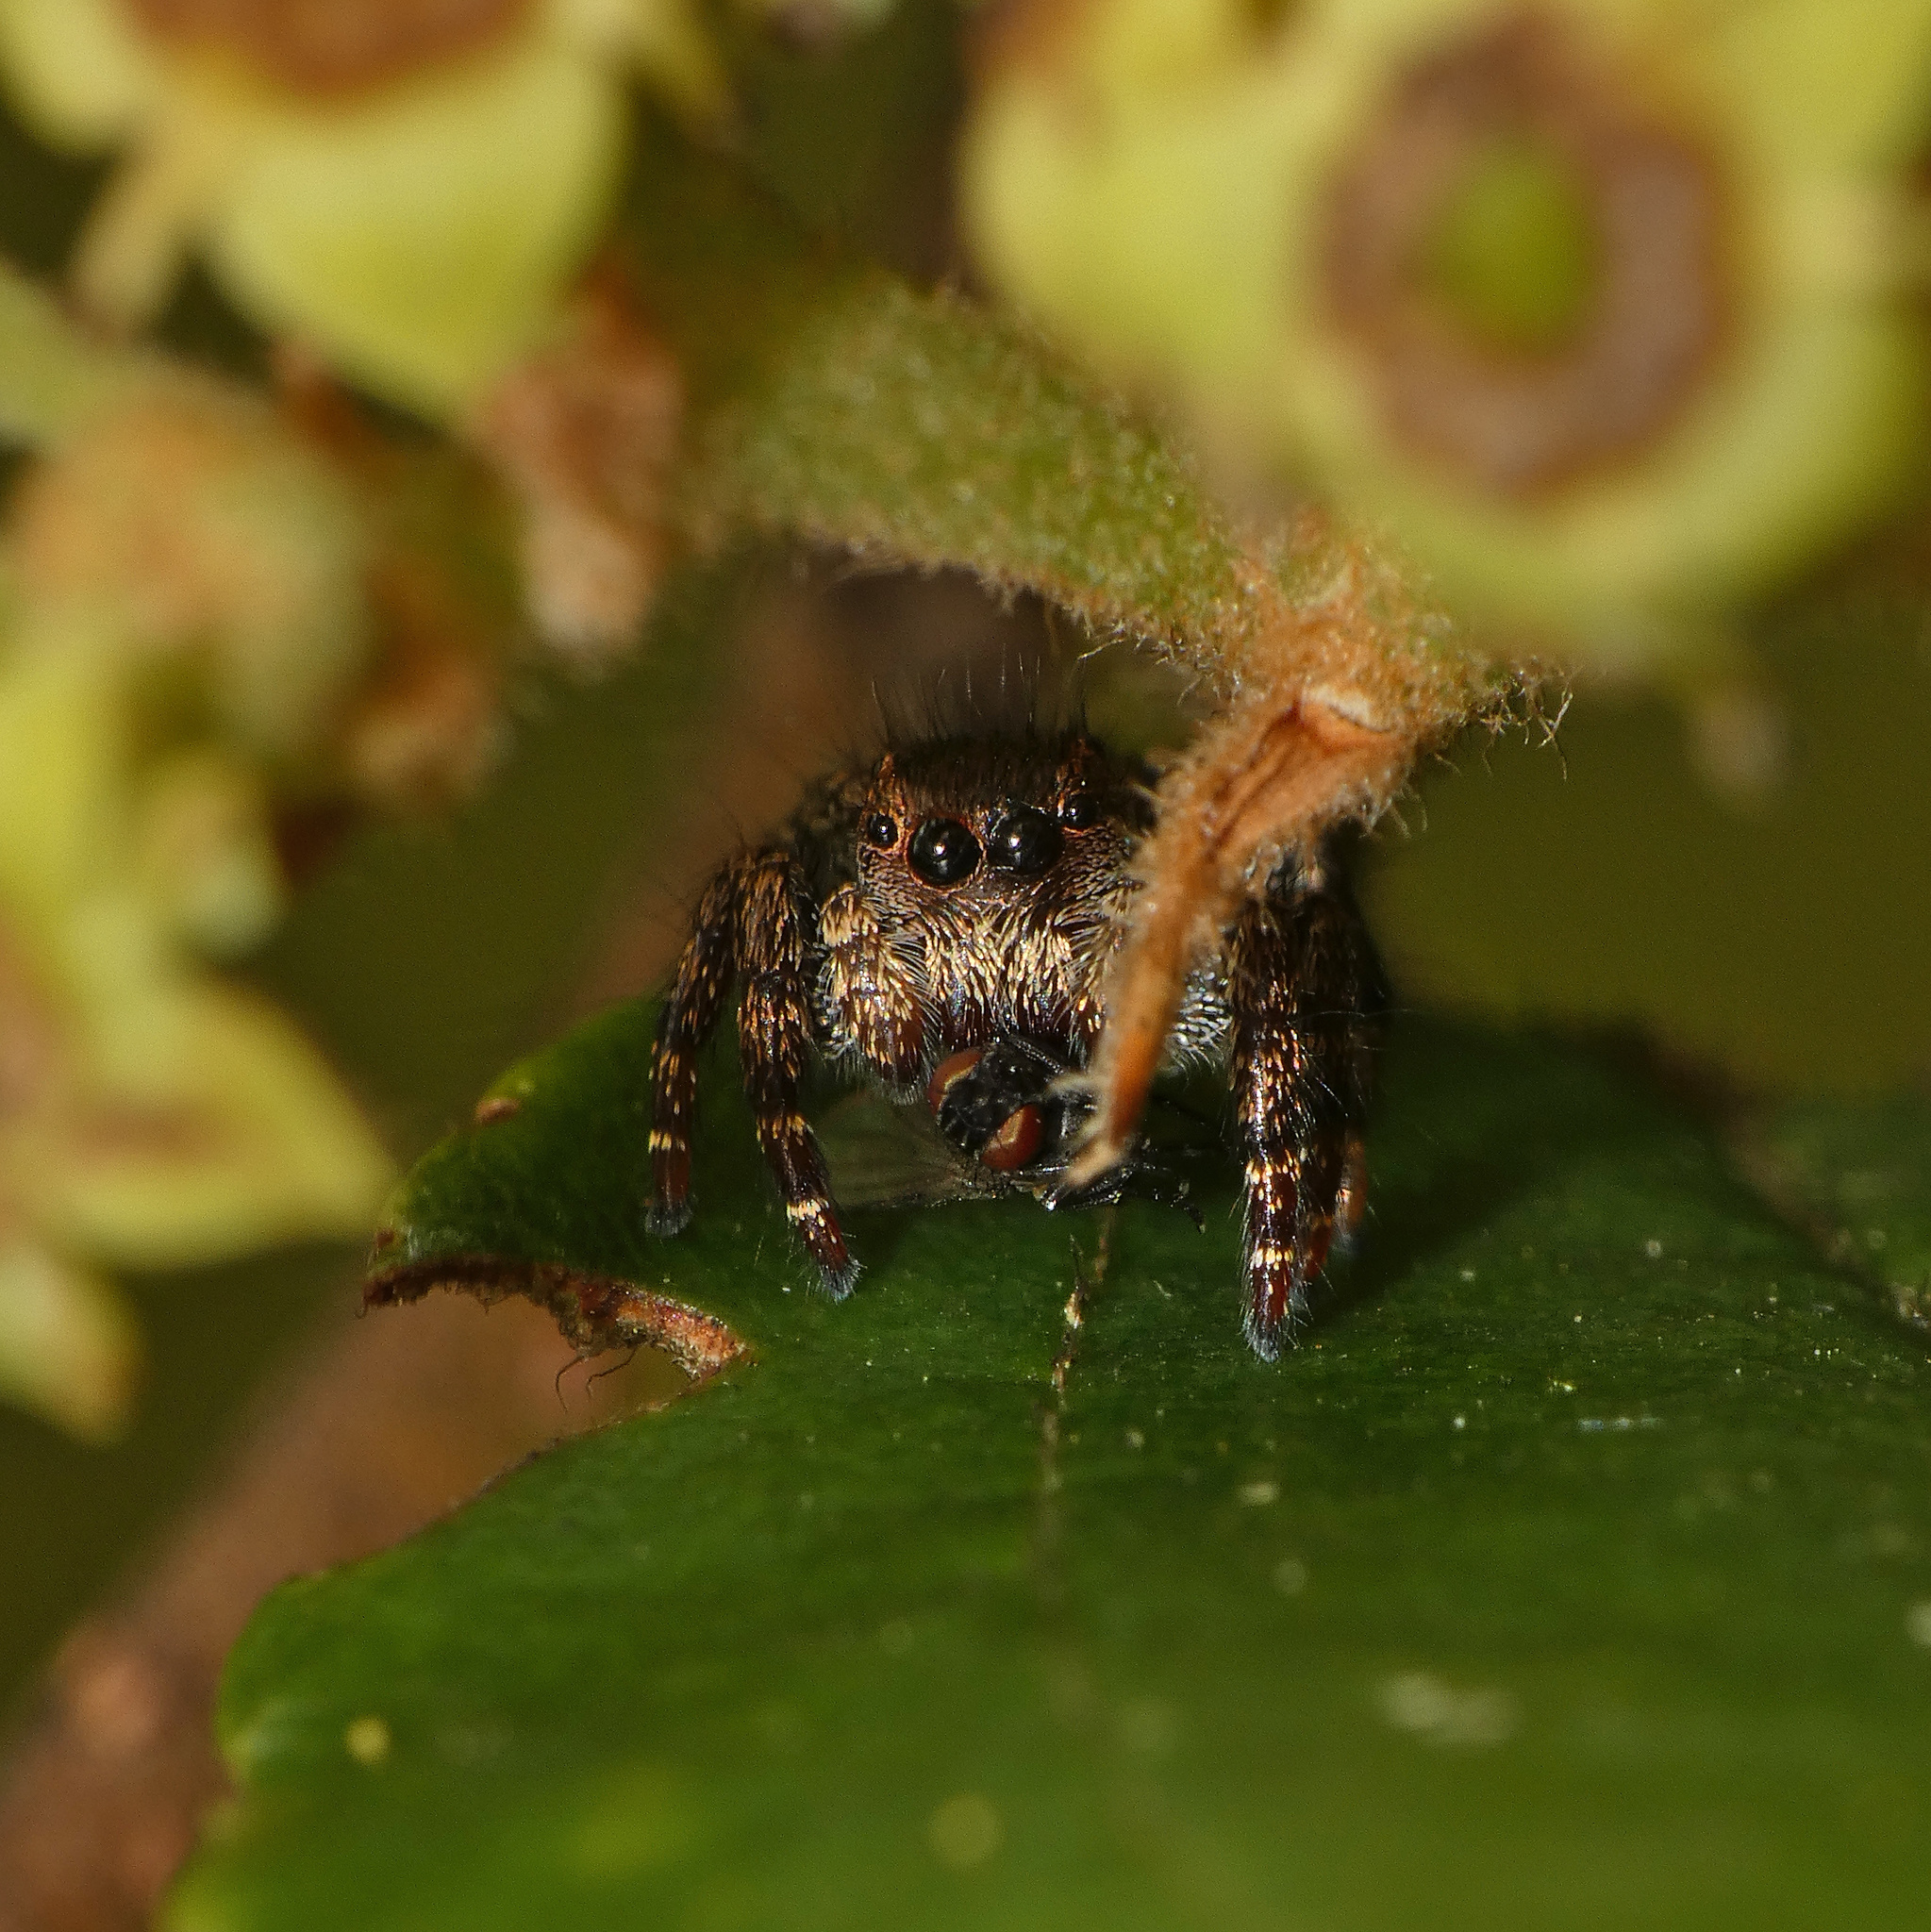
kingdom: Animalia
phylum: Arthropoda
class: Arachnida
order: Araneae
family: Salticidae
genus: Baryphas
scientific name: Baryphas ahenus
